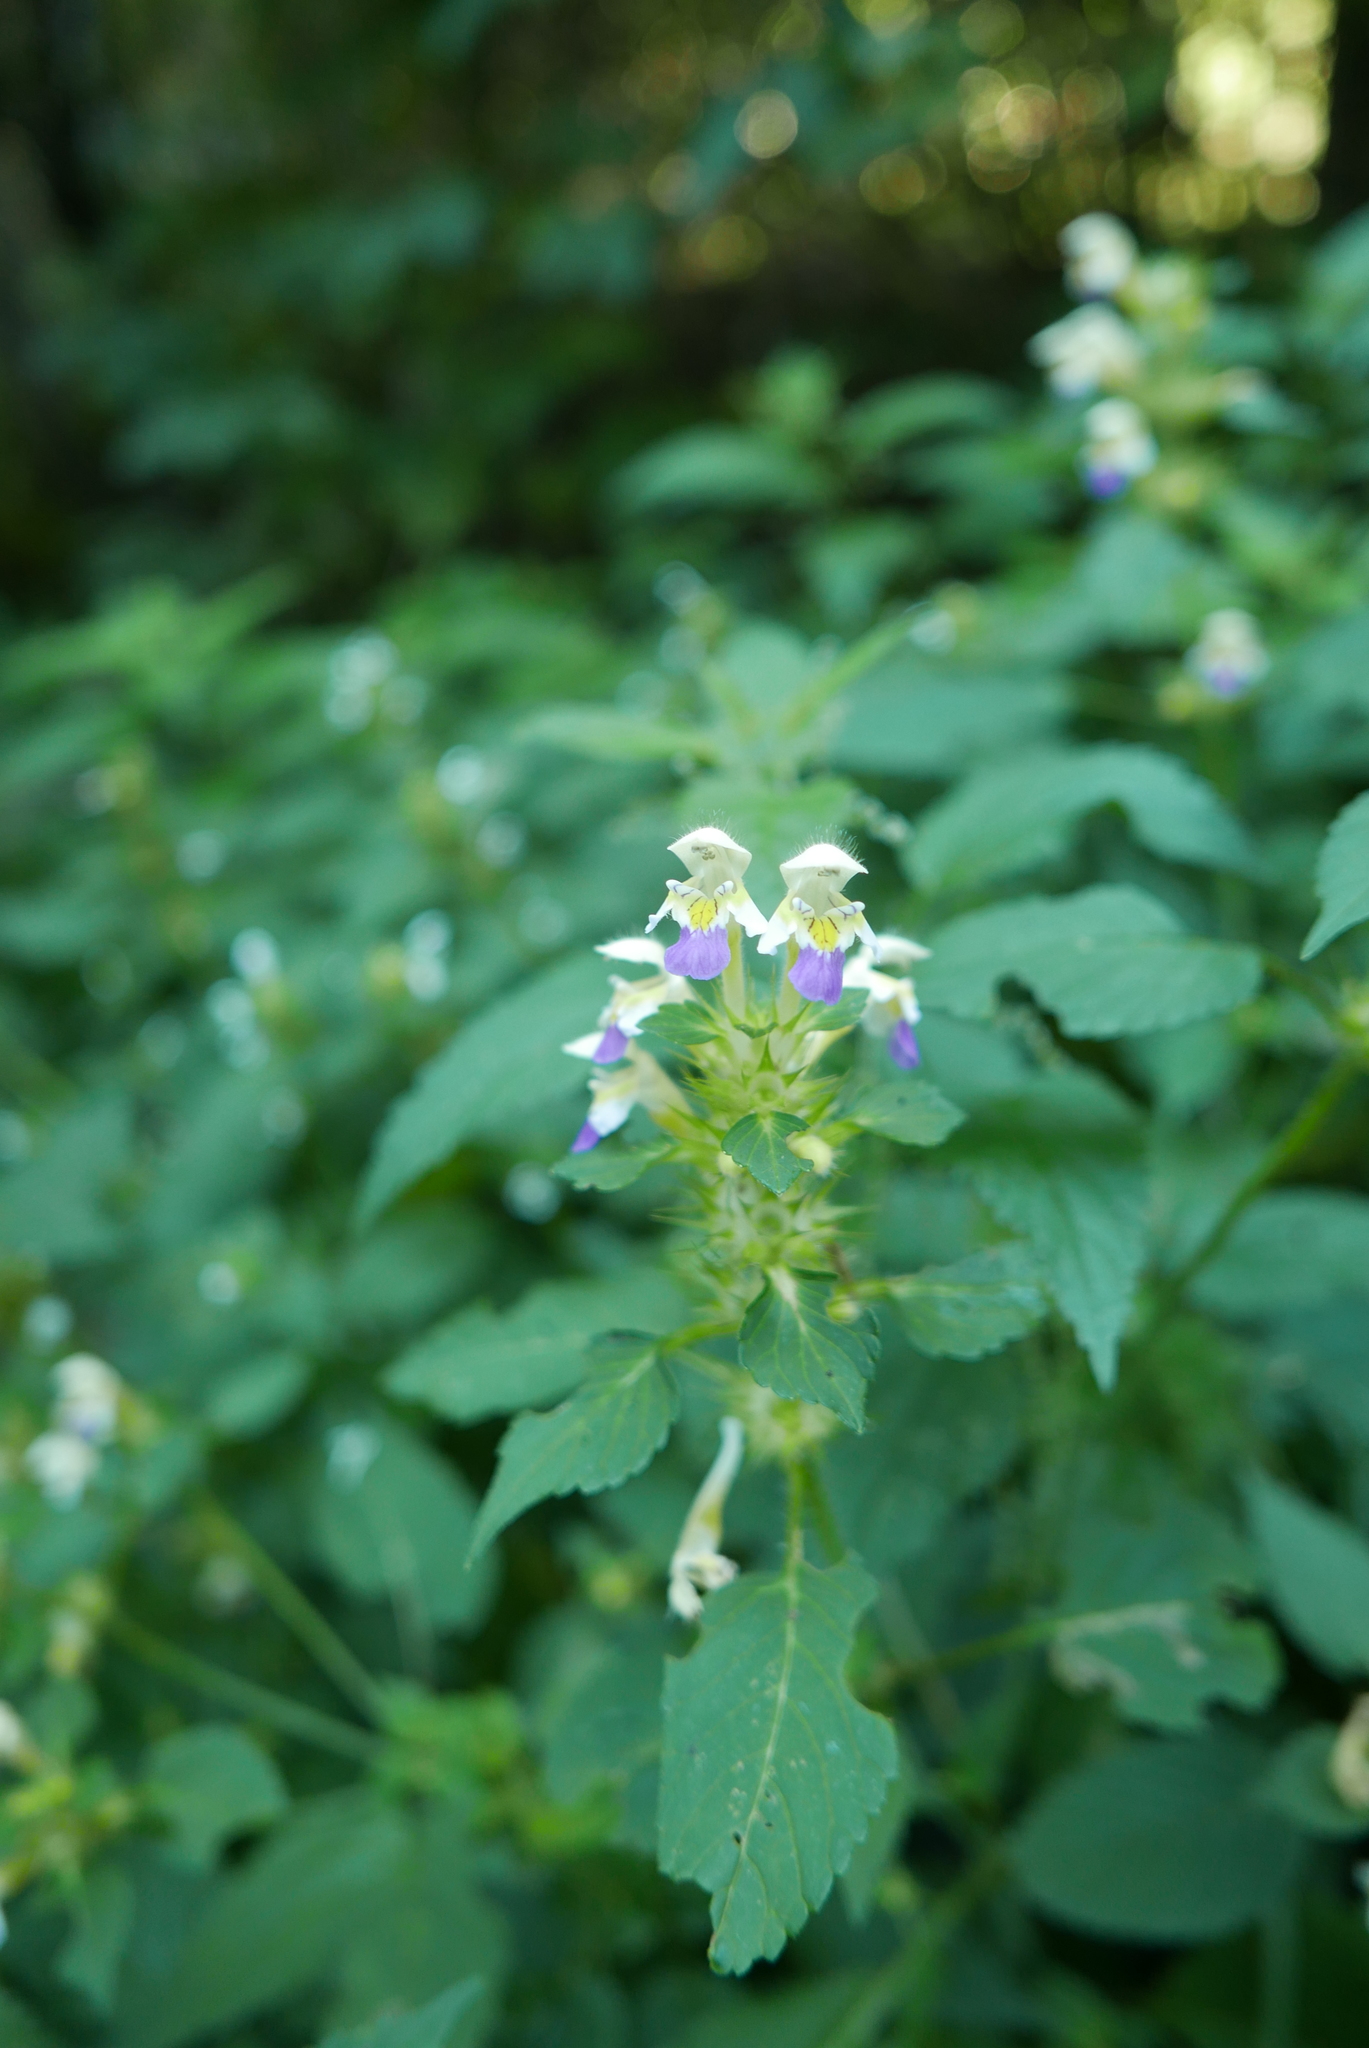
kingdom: Plantae
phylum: Tracheophyta
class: Magnoliopsida
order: Lamiales
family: Lamiaceae
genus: Galeopsis
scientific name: Galeopsis speciosa
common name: Large-flowered hemp-nettle
